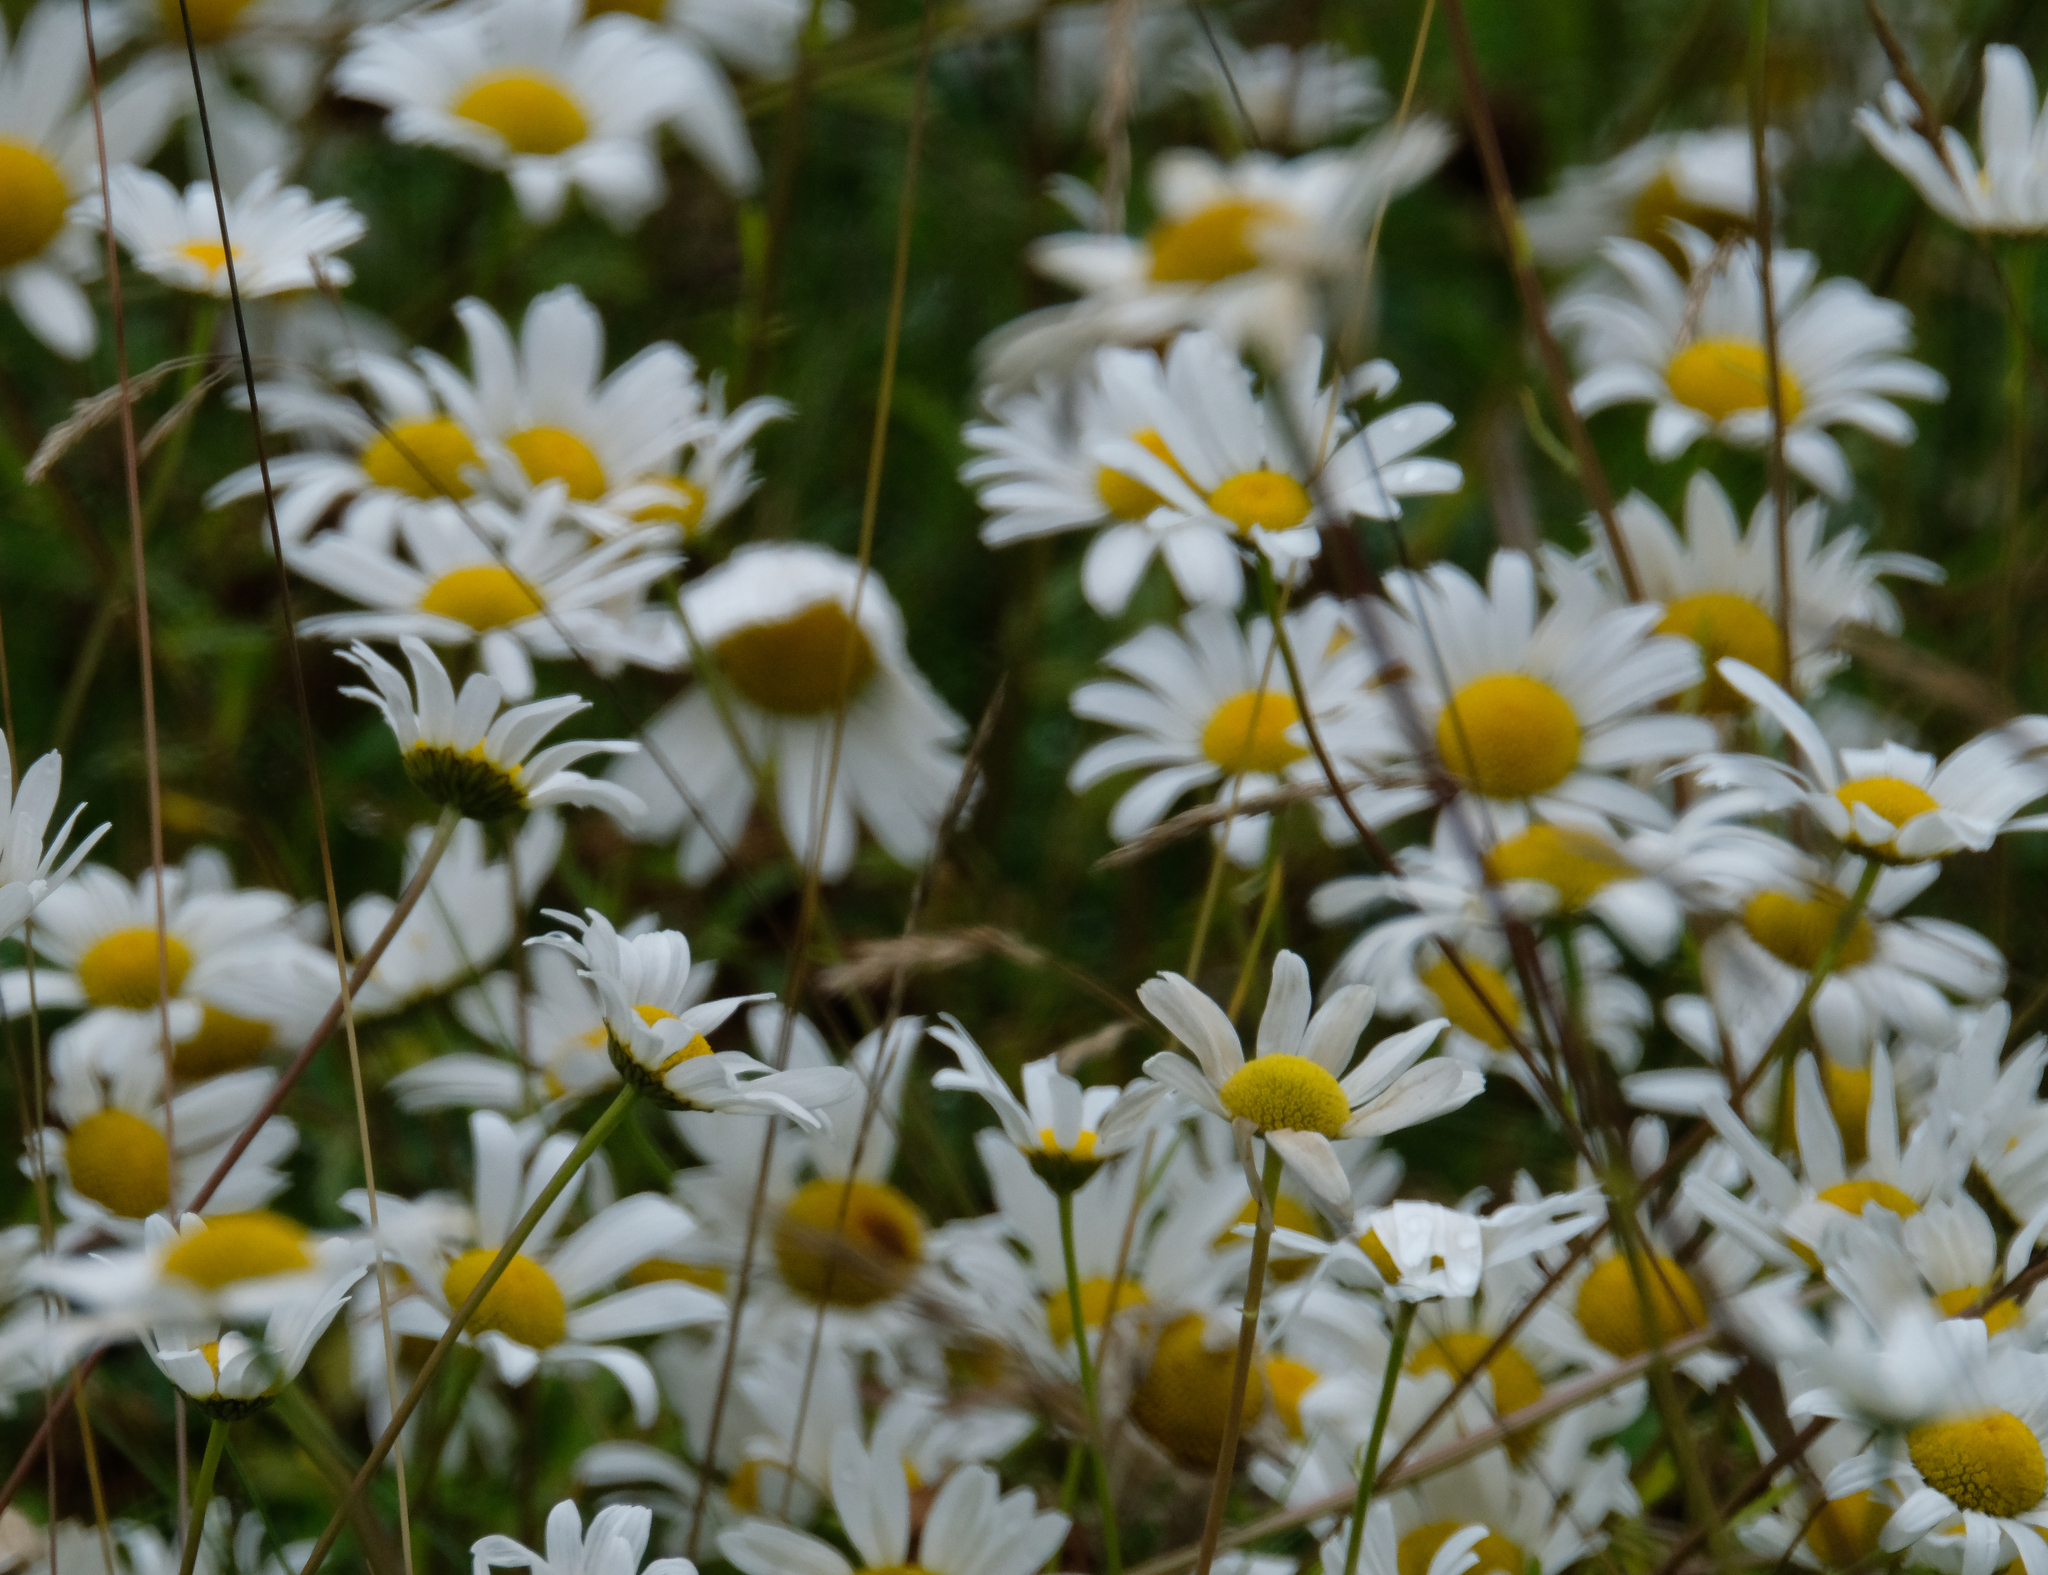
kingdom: Plantae
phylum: Tracheophyta
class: Magnoliopsida
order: Asterales
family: Asteraceae
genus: Leucanthemum
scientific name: Leucanthemum vulgare
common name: Oxeye daisy
